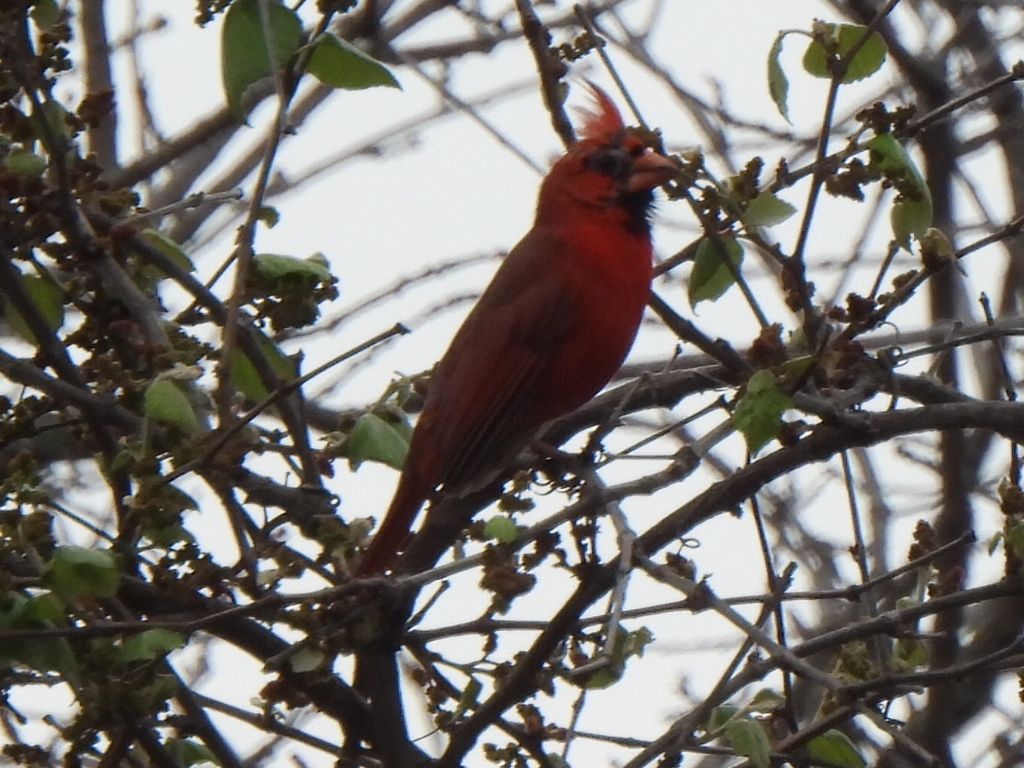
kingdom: Animalia
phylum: Chordata
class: Aves
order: Passeriformes
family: Cardinalidae
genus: Cardinalis
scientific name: Cardinalis cardinalis
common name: Northern cardinal
